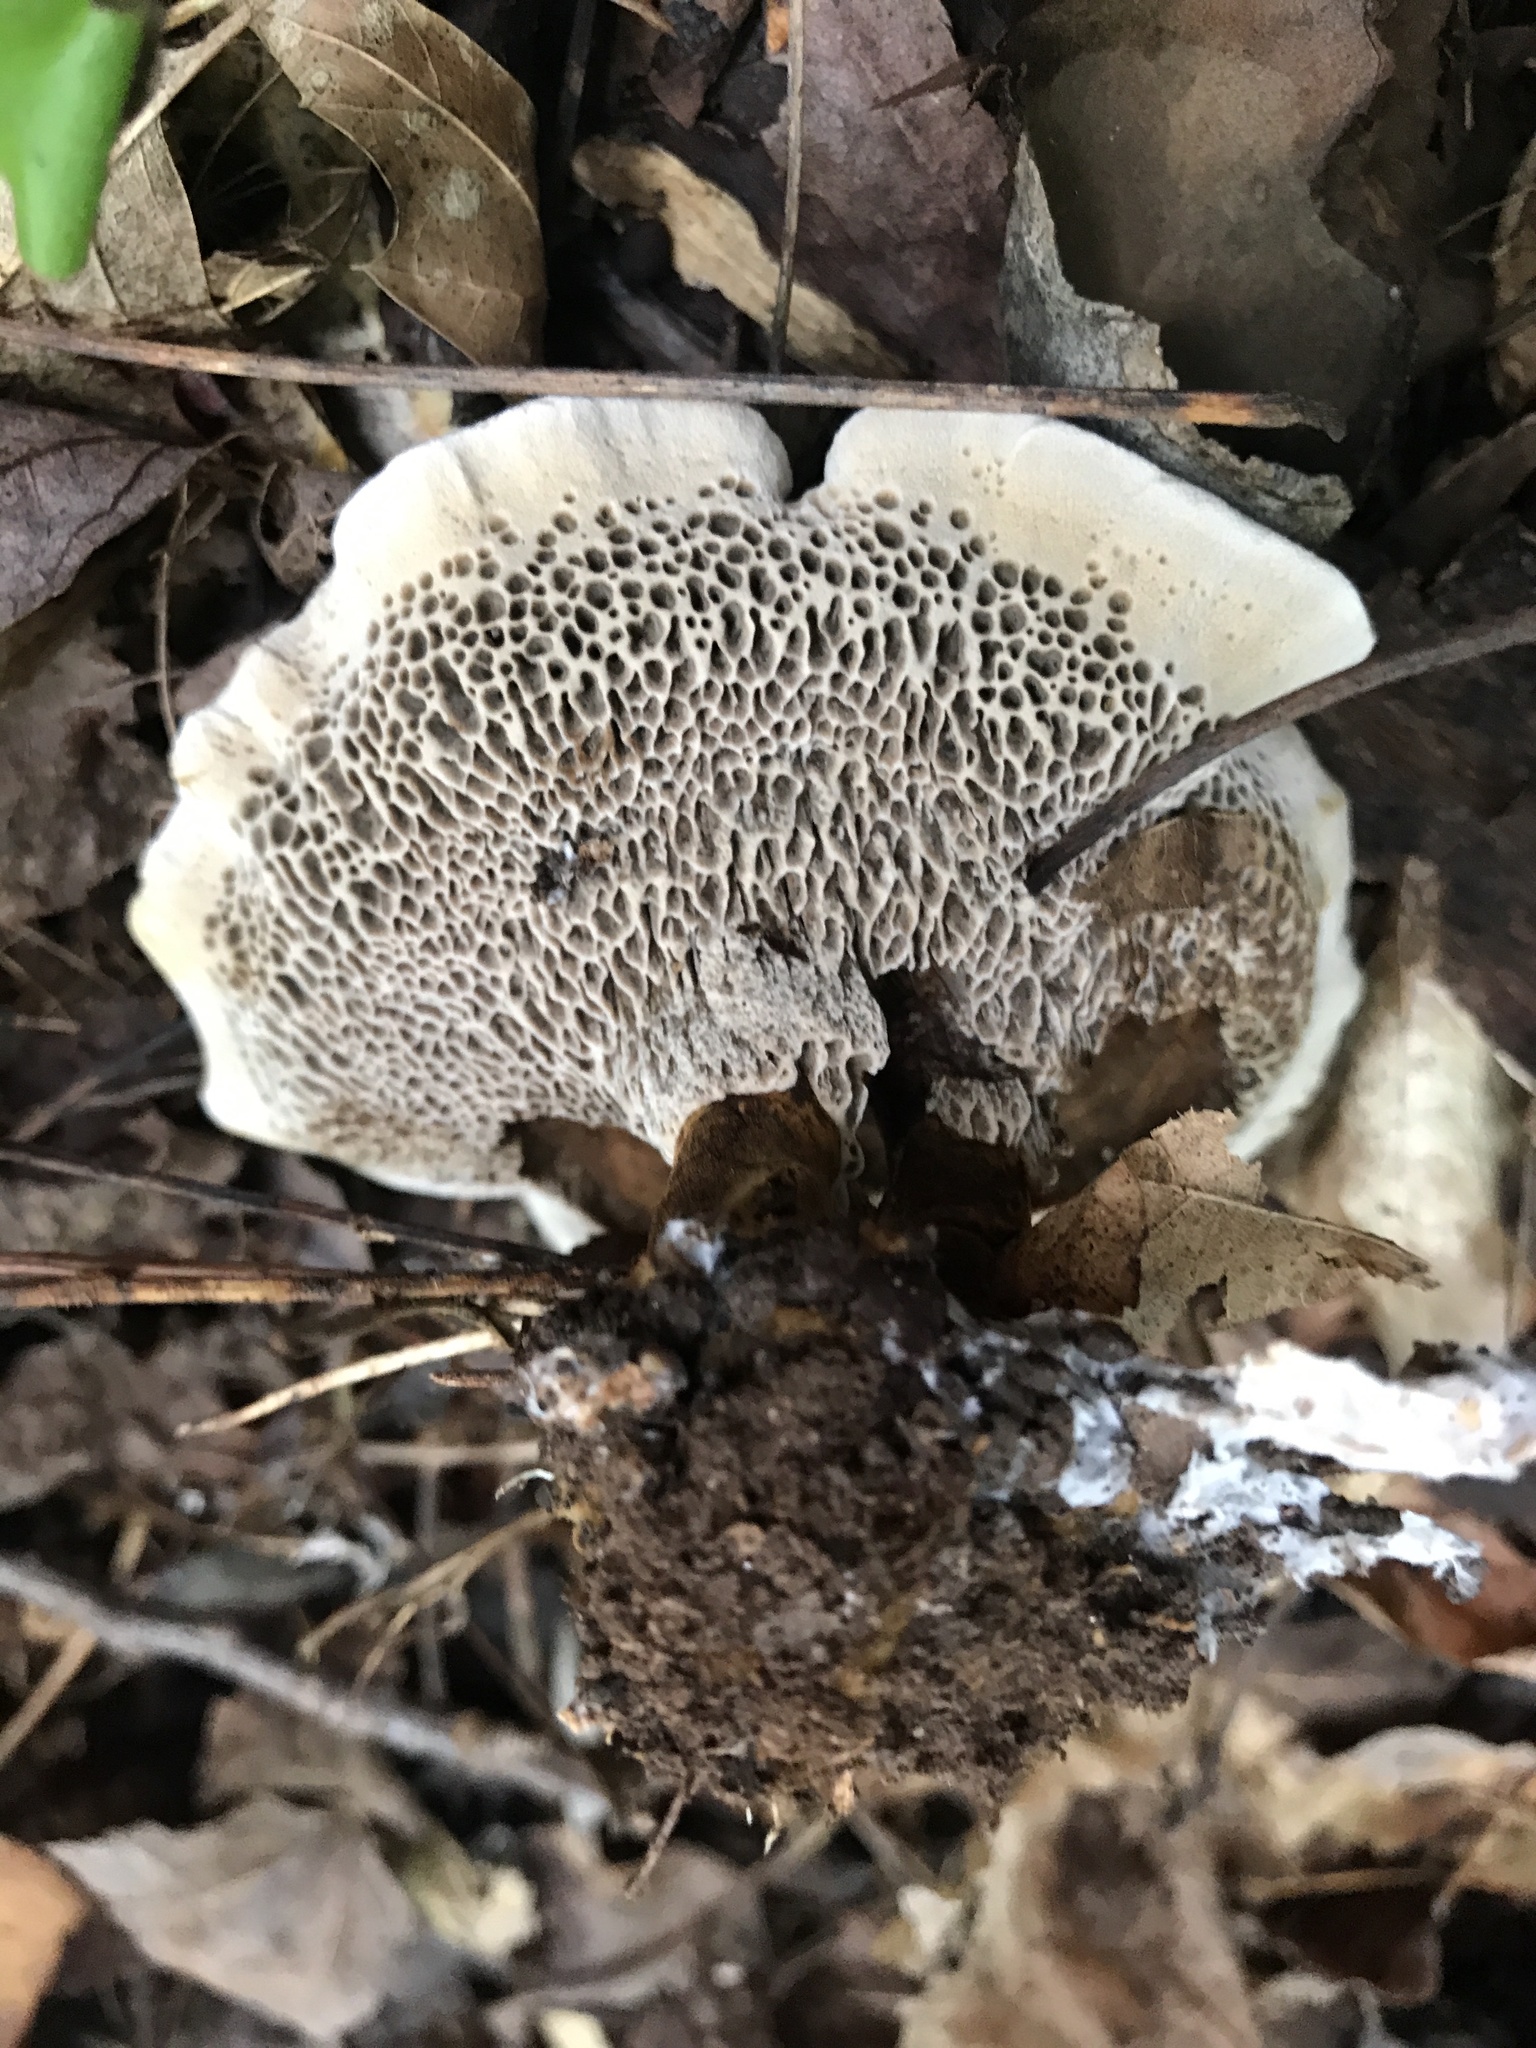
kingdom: Fungi
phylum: Basidiomycota
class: Agaricomycetes
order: Hymenochaetales
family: Hymenochaetaceae
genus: Coltricia
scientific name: Coltricia montagnei
